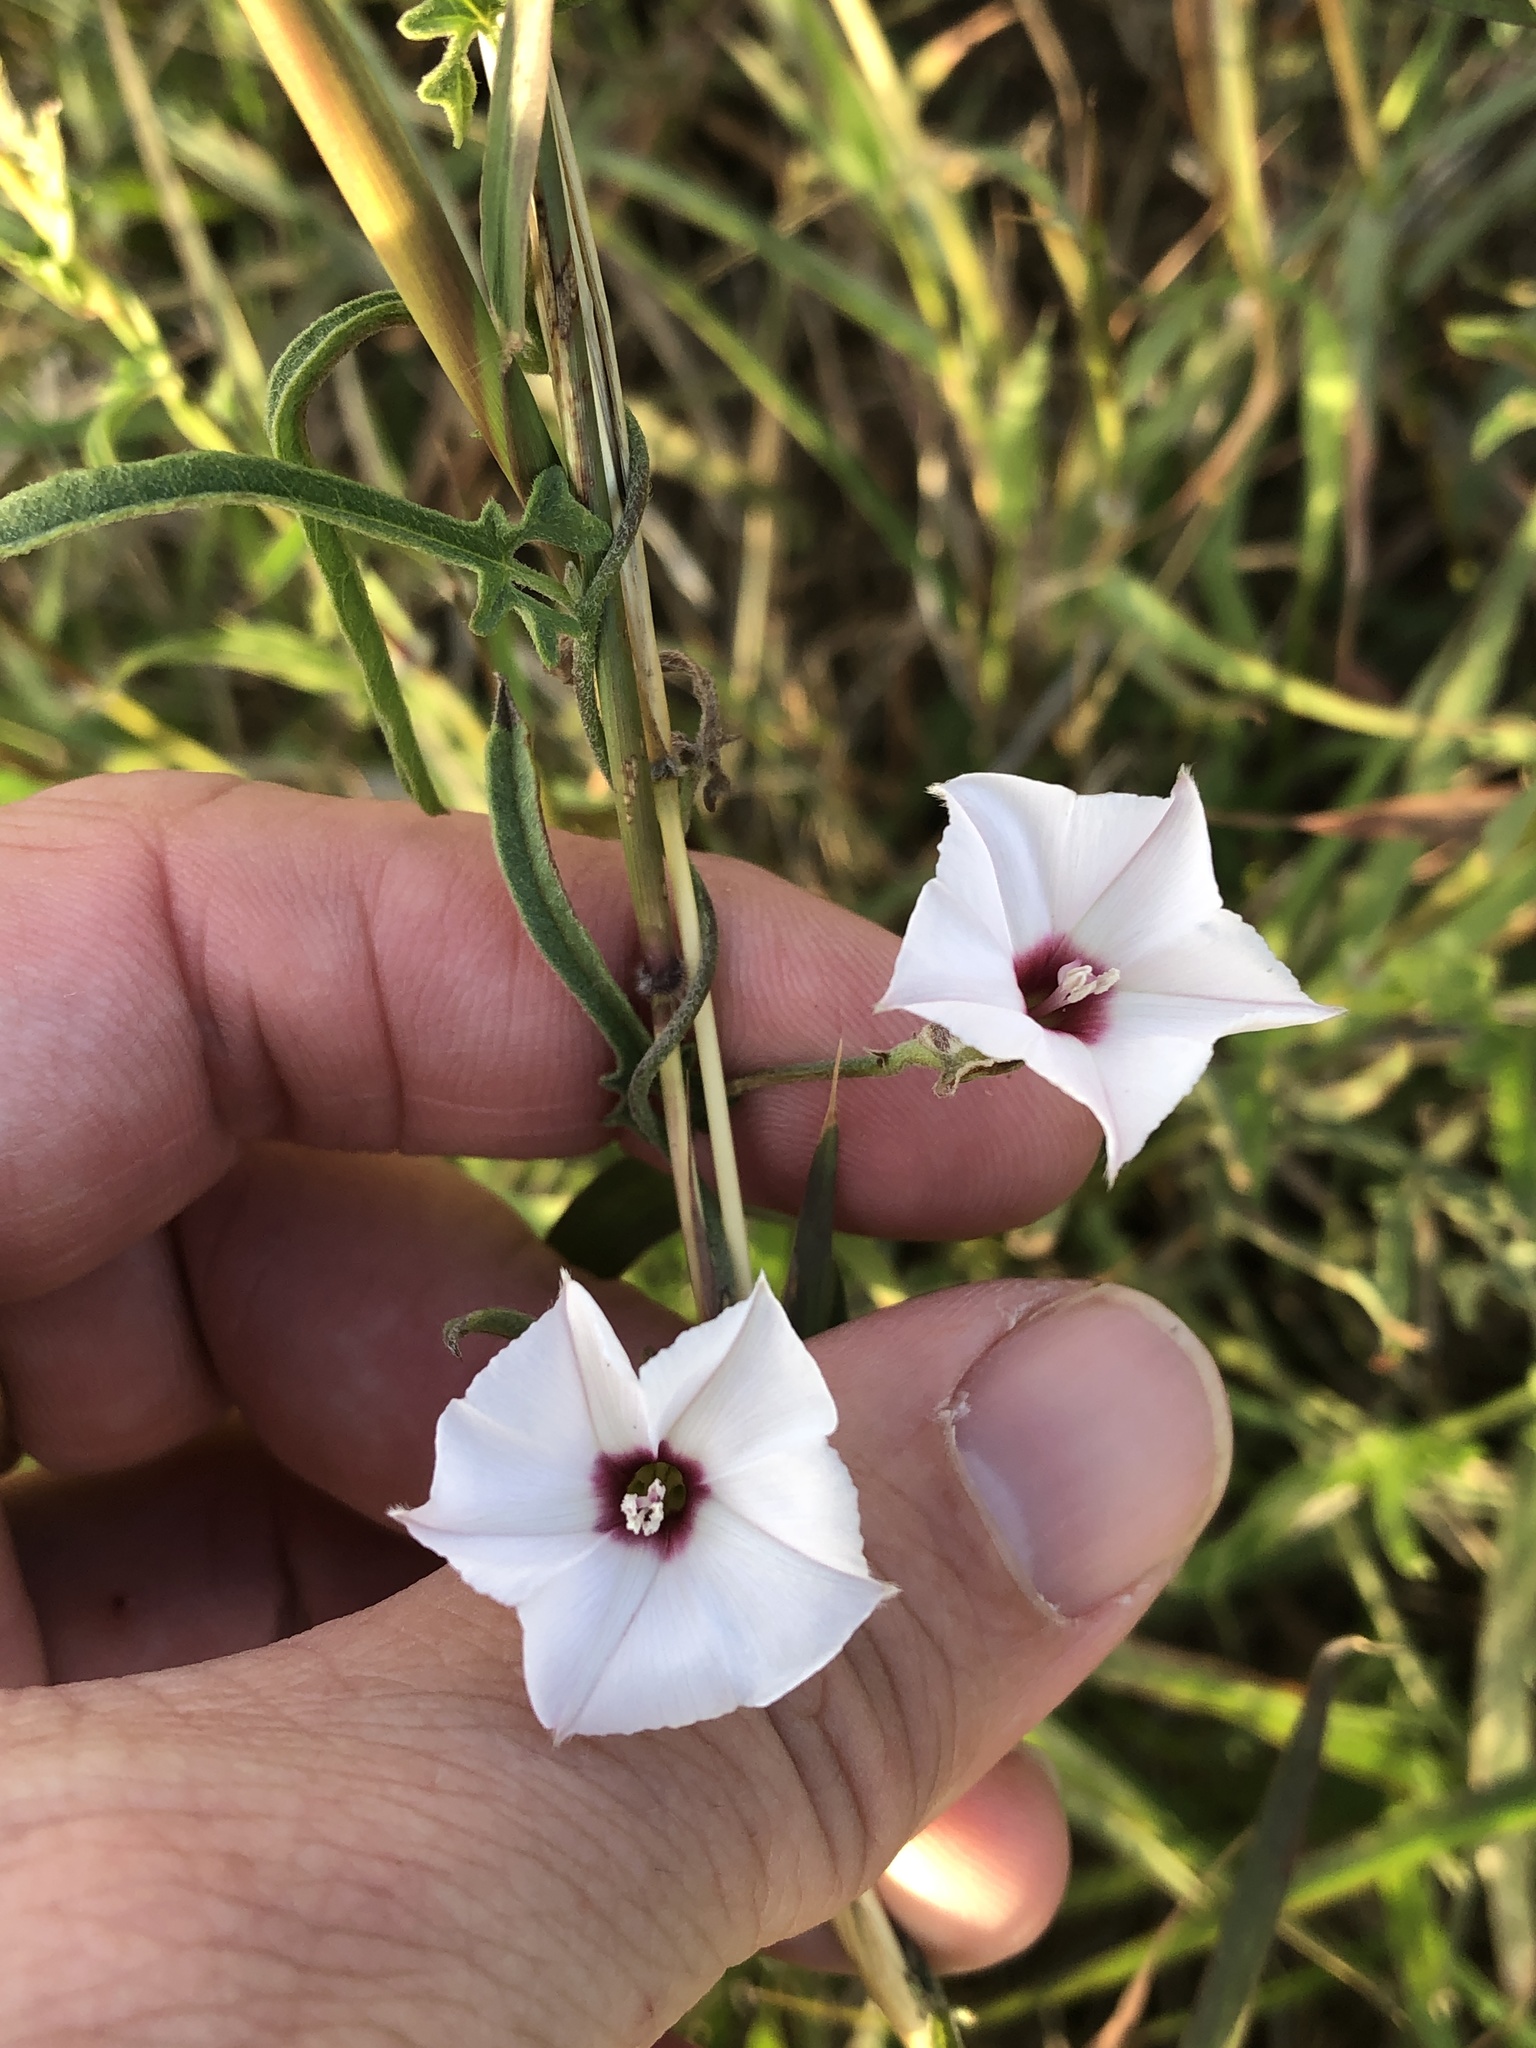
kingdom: Plantae
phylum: Tracheophyta
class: Magnoliopsida
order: Solanales
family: Convolvulaceae
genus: Convolvulus
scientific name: Convolvulus equitans
